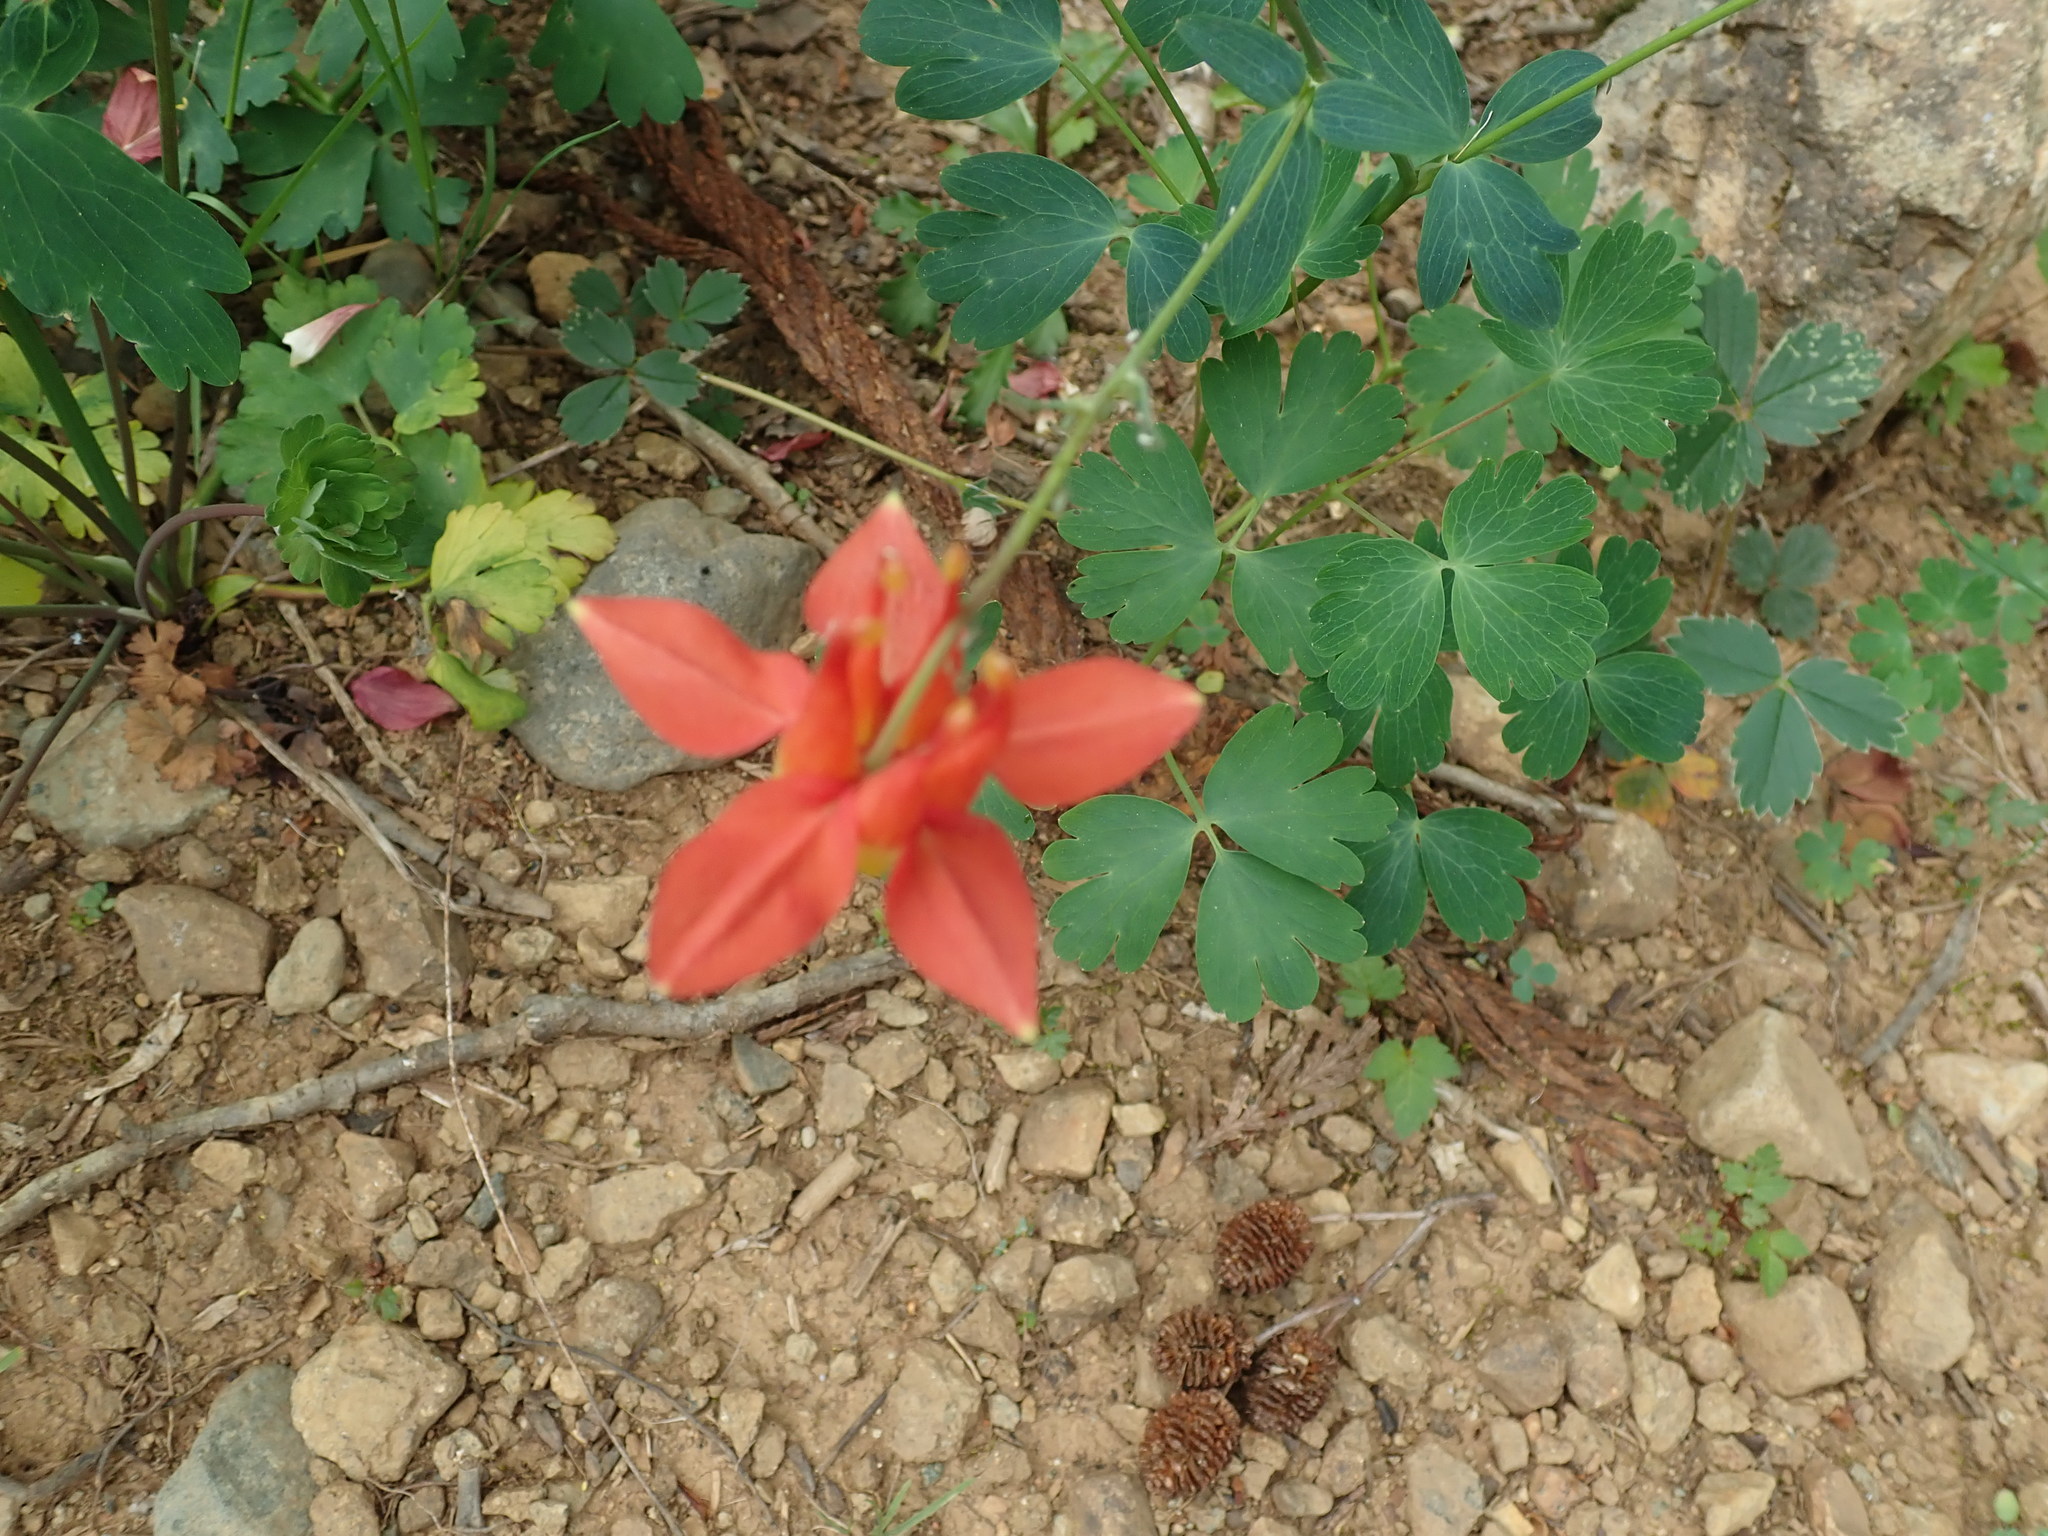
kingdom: Plantae
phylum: Tracheophyta
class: Magnoliopsida
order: Ranunculales
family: Ranunculaceae
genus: Aquilegia
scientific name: Aquilegia formosa
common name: Sitka columbine
